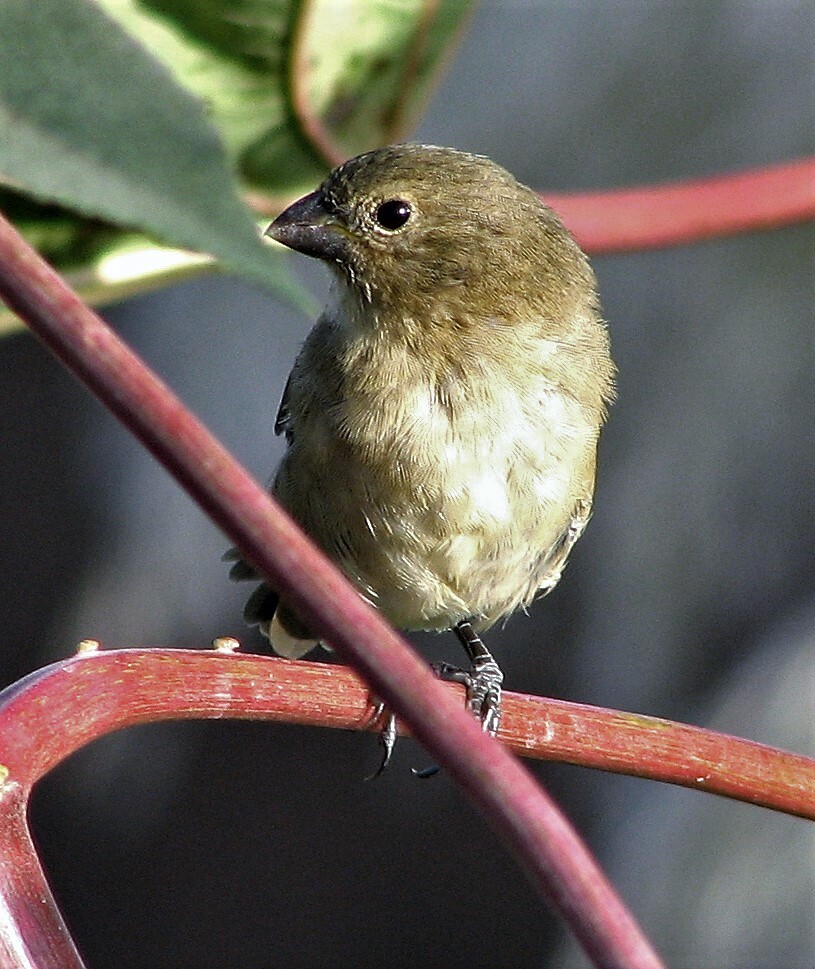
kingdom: Animalia
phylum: Chordata
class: Aves
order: Passeriformes
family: Thraupidae
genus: Sporophila
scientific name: Sporophila caerulescens
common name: Double-collared seedeater
